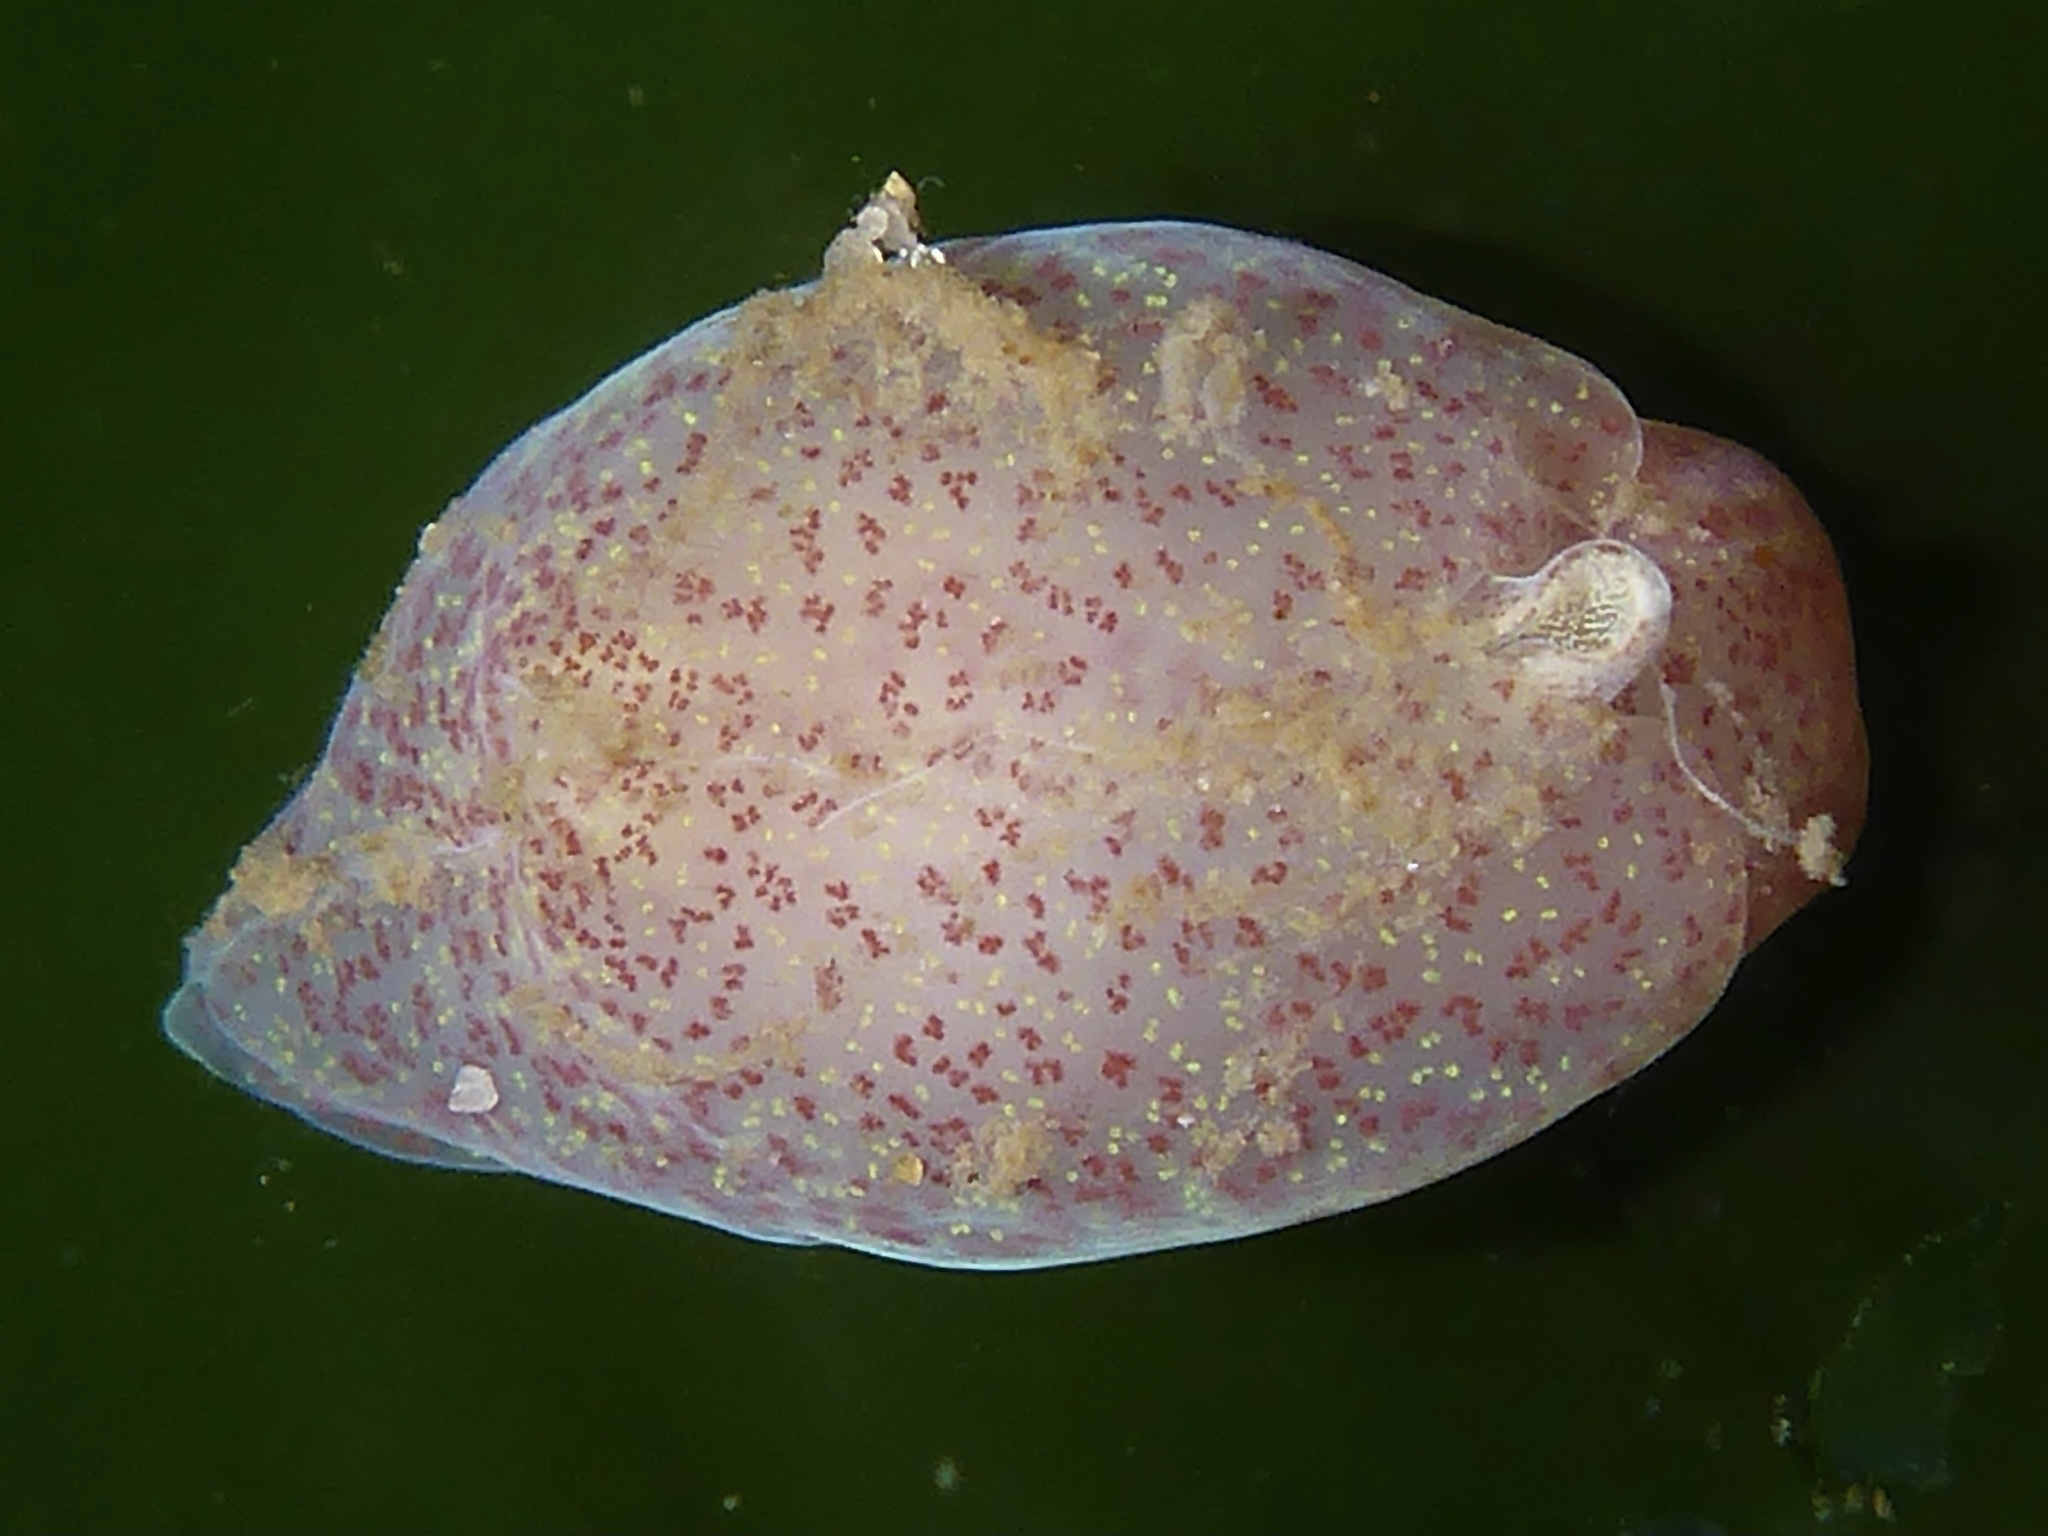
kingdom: Animalia
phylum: Mollusca
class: Gastropoda
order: Cephalaspidea
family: Gastropteridae
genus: Gastropteron
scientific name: Gastropteron pacificum
